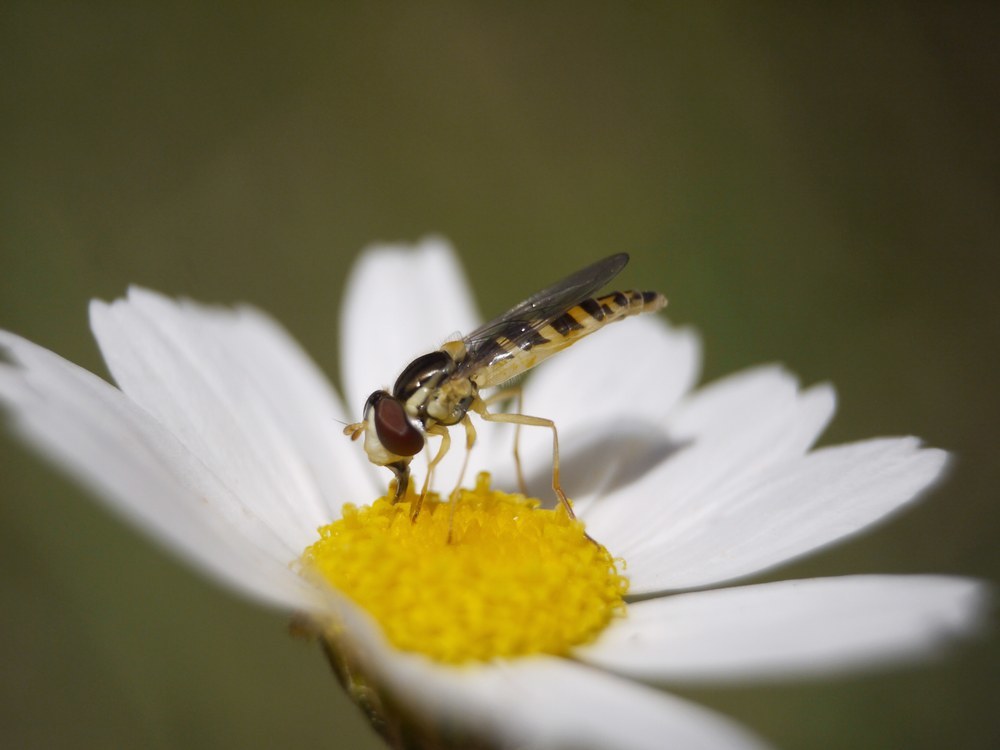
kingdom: Animalia
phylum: Arthropoda
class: Insecta
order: Diptera
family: Syrphidae
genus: Sphaerophoria
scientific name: Sphaerophoria
